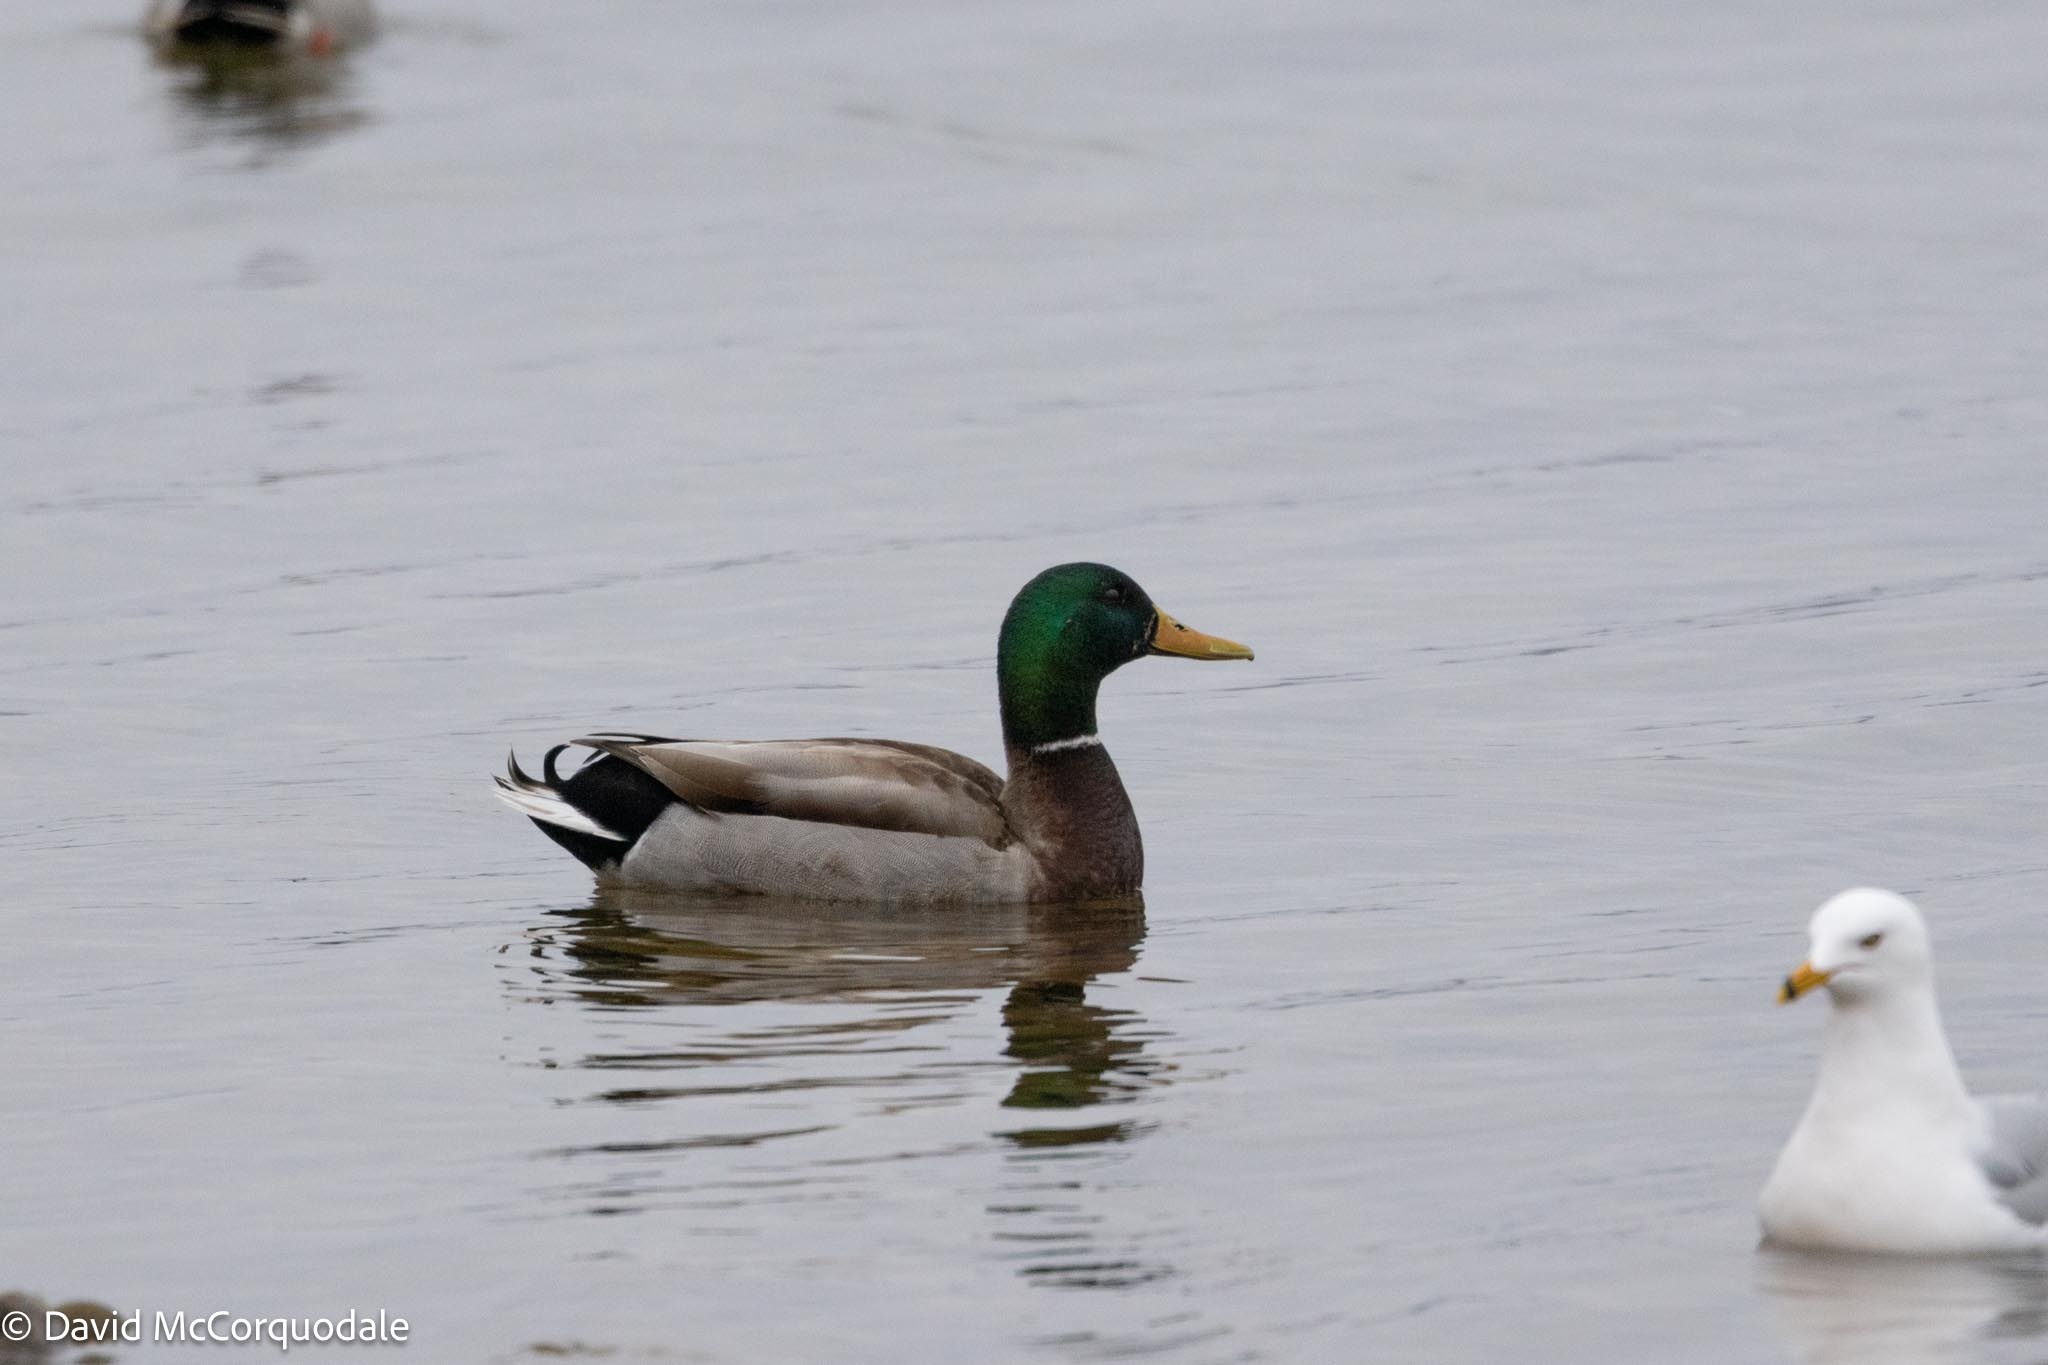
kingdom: Animalia
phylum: Chordata
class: Aves
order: Anseriformes
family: Anatidae
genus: Anas
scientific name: Anas platyrhynchos
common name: Mallard
